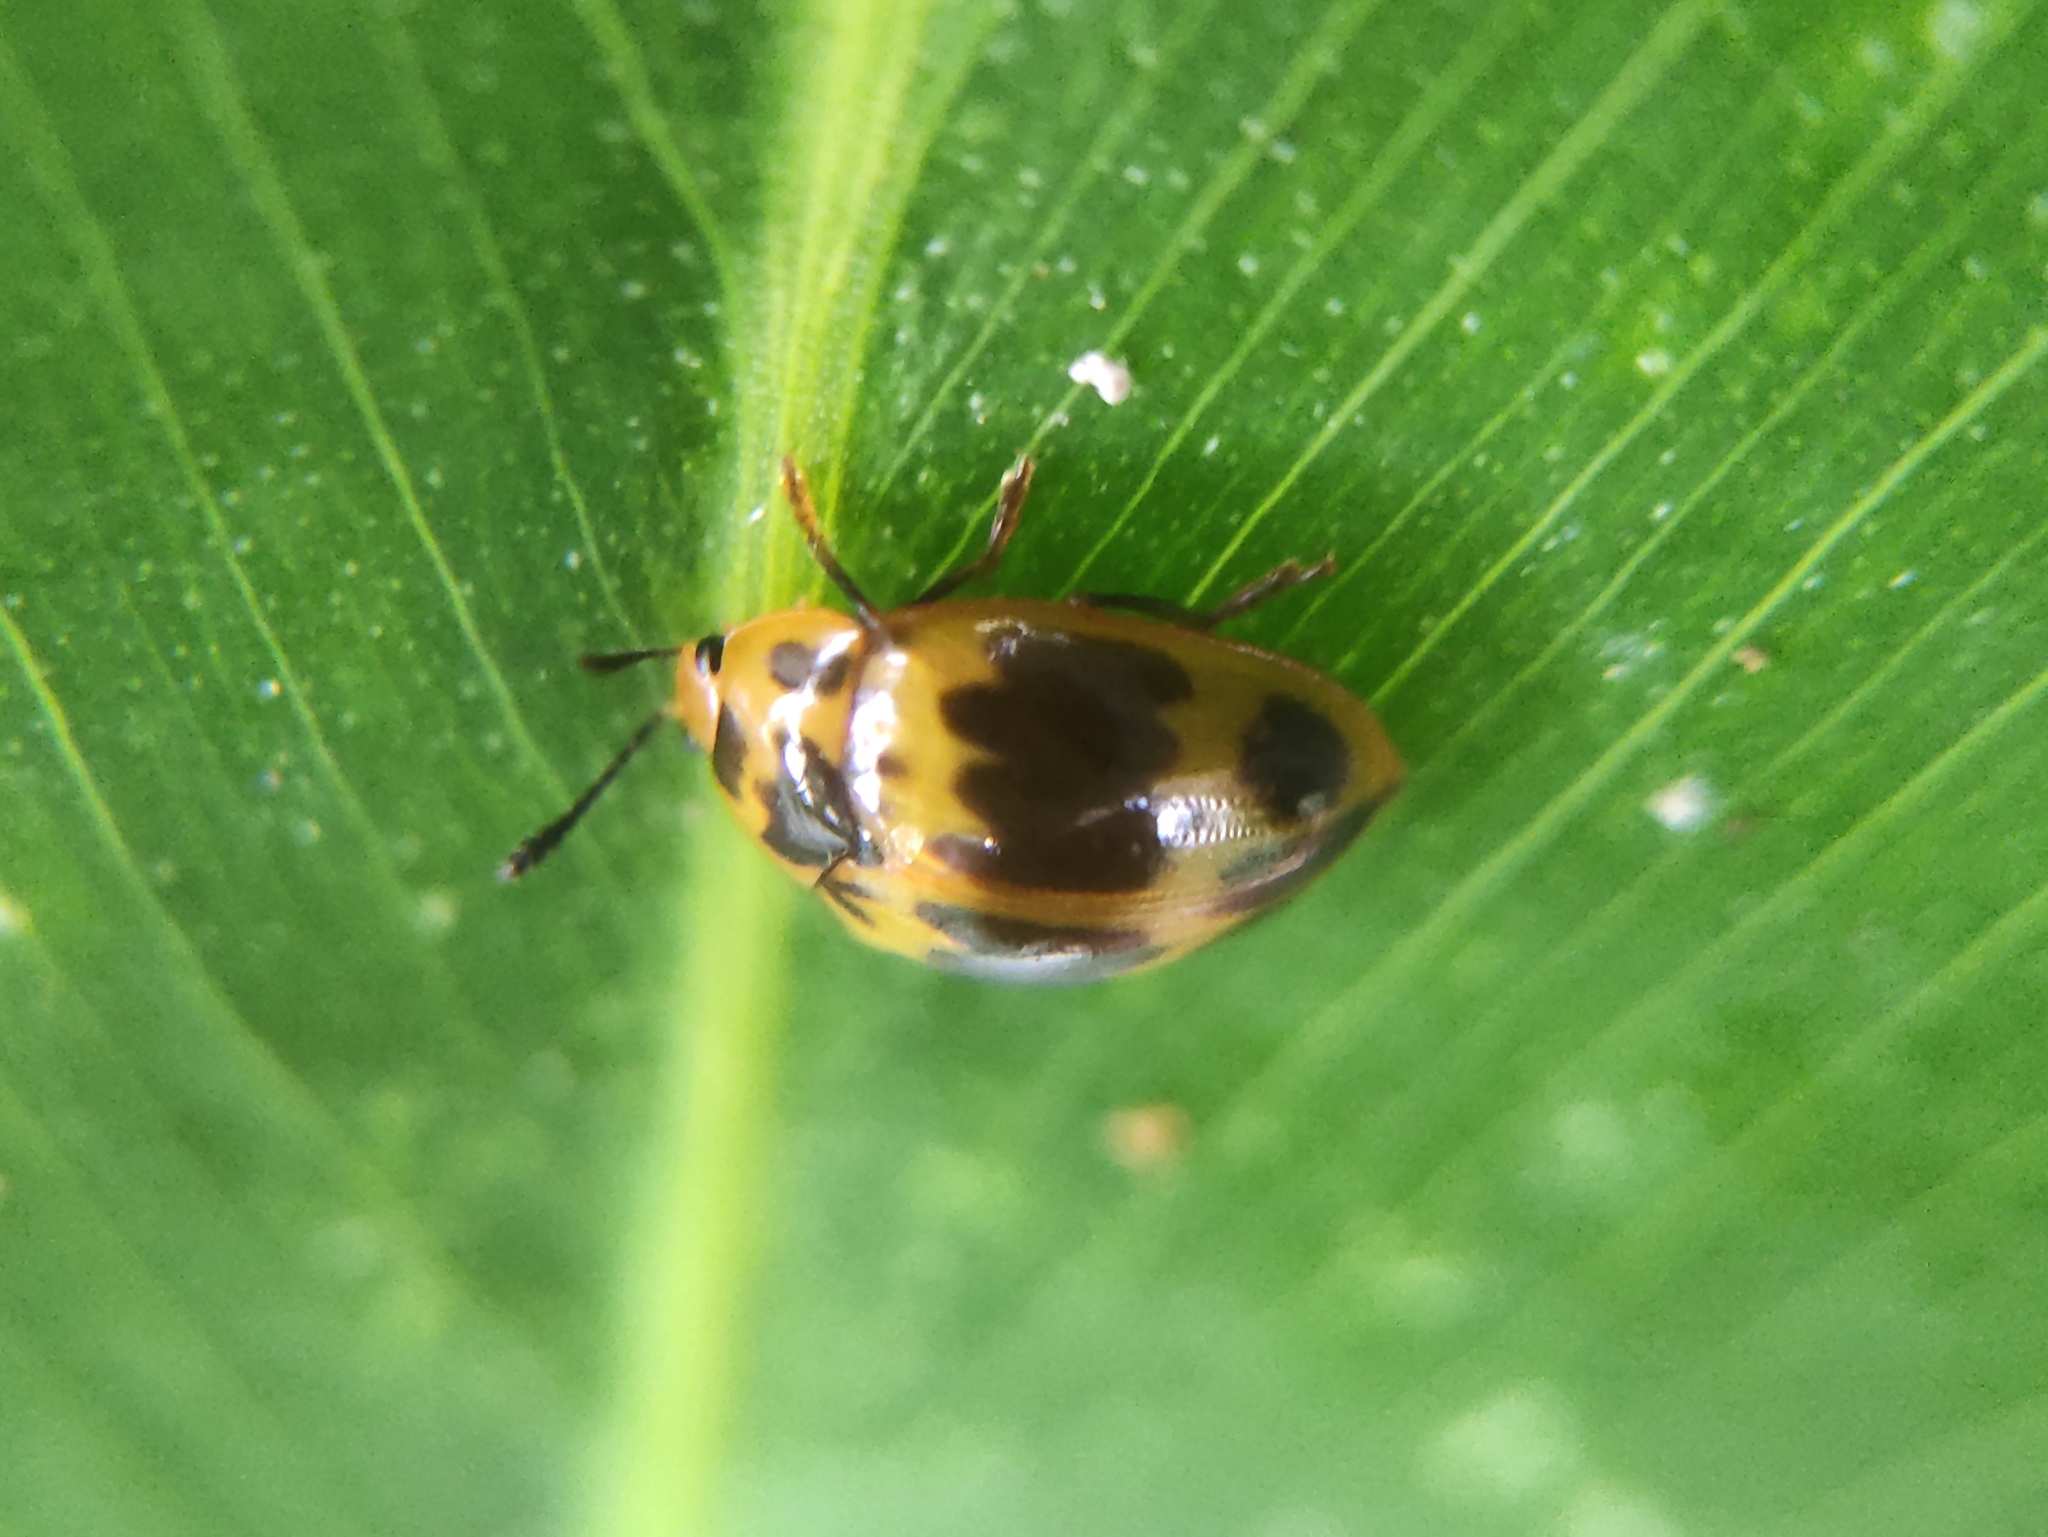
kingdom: Animalia
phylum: Arthropoda
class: Insecta
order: Coleoptera
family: Erotylidae
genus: Iphiclus
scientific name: Iphiclus
